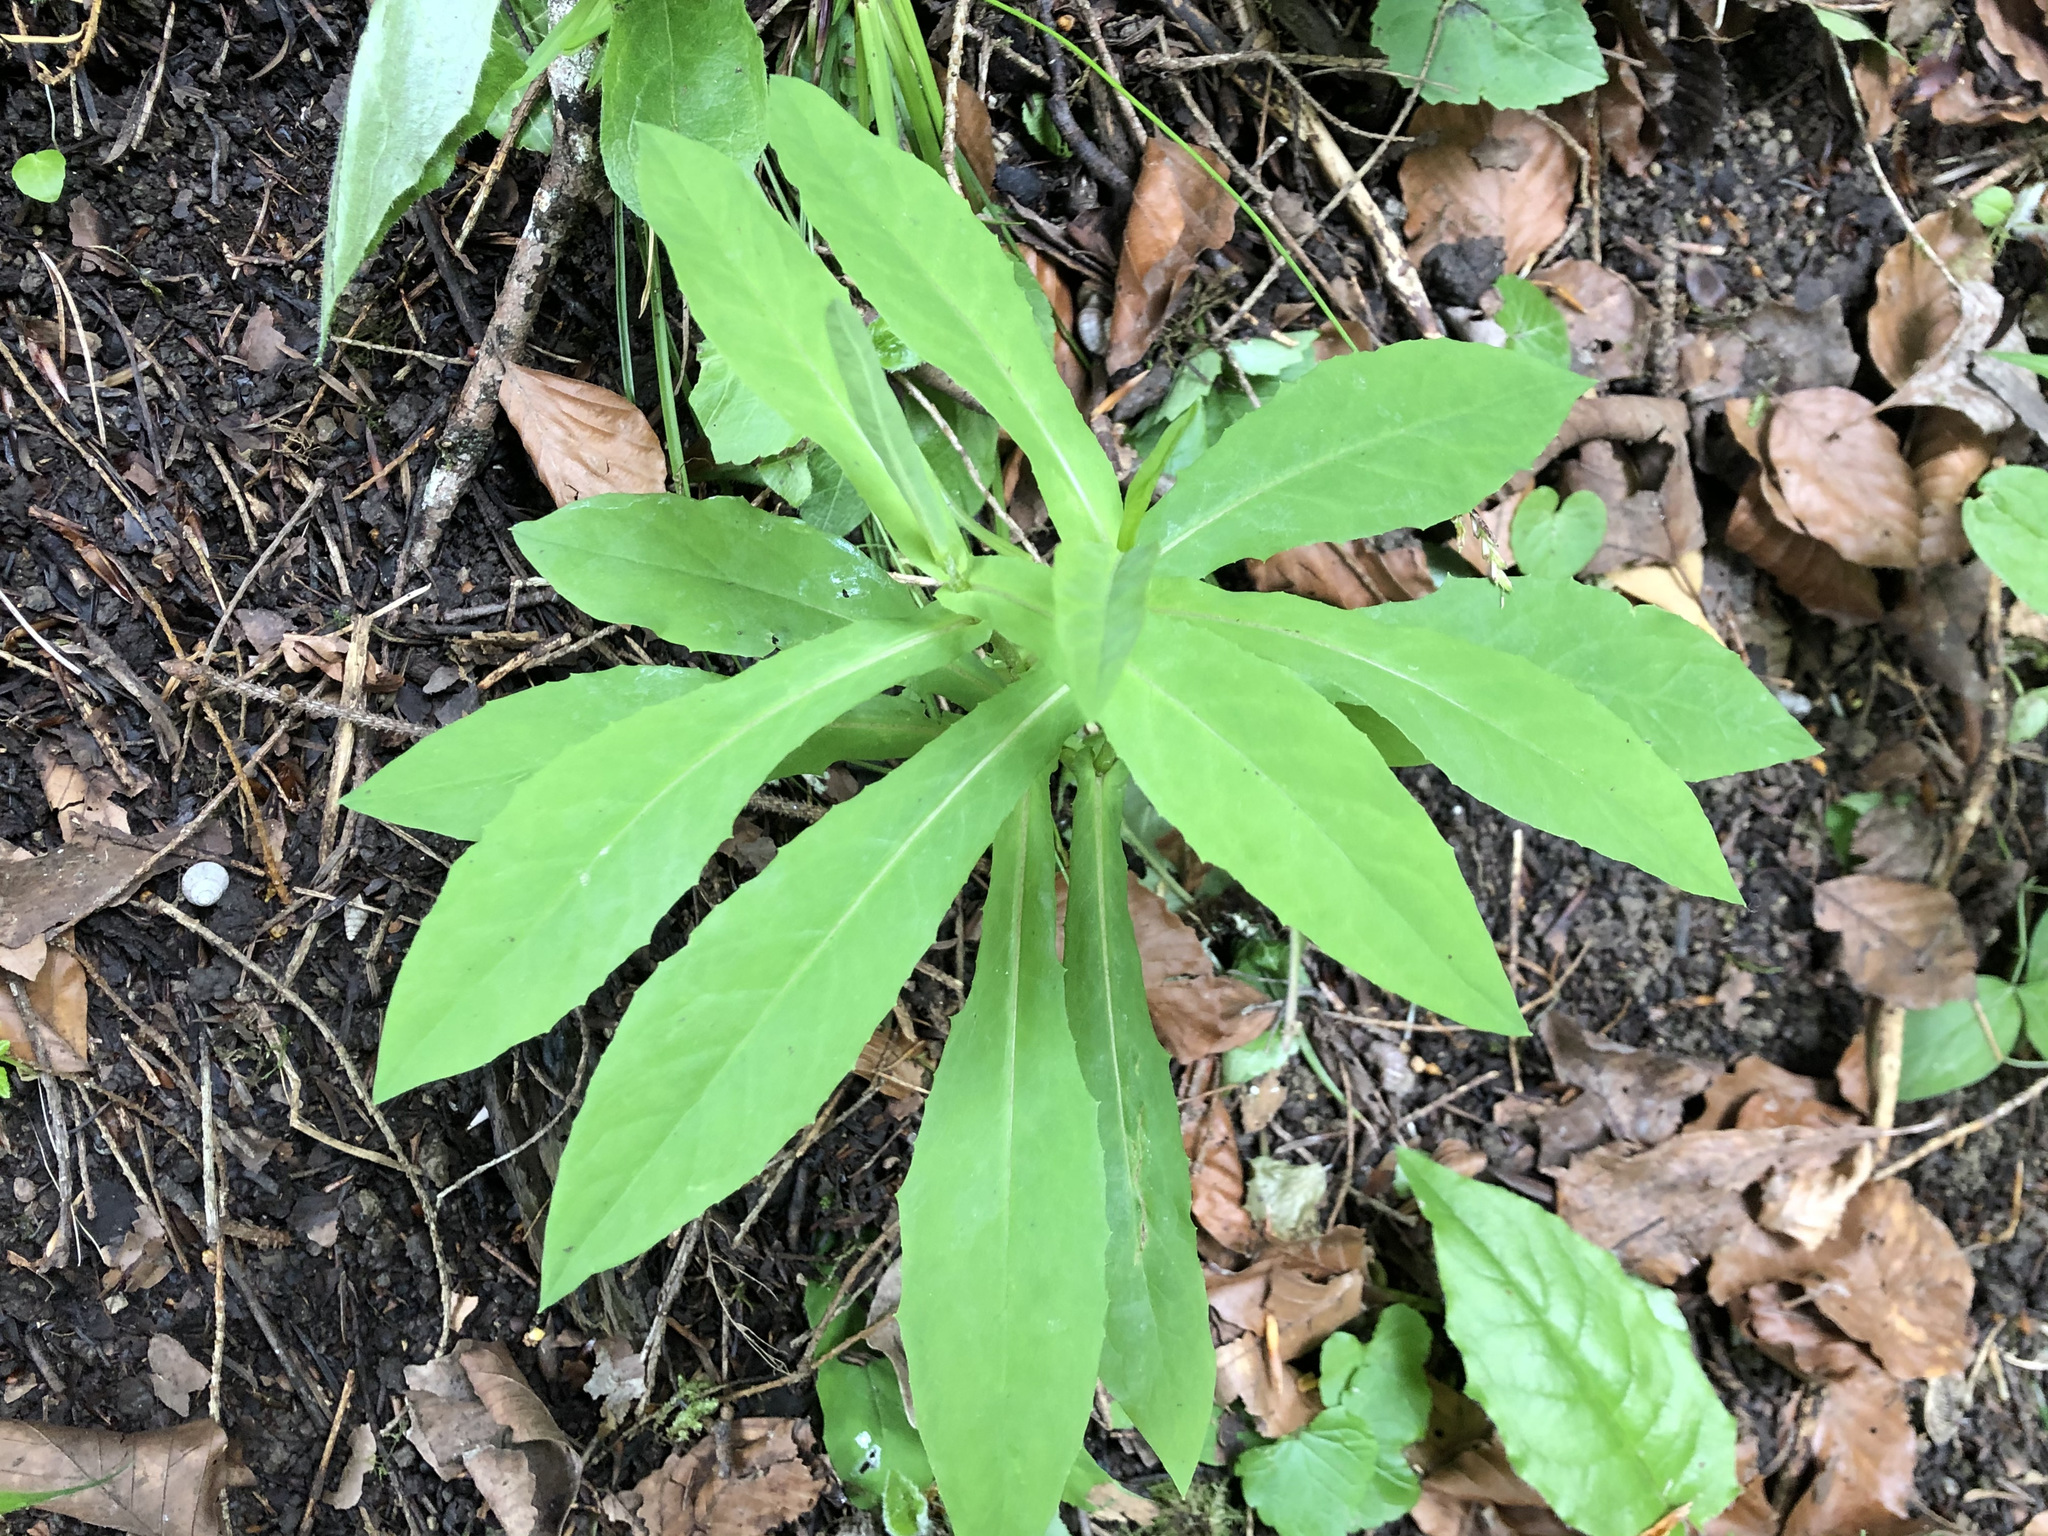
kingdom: Plantae
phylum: Tracheophyta
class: Magnoliopsida
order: Asterales
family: Asteraceae
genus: Prenanthes
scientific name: Prenanthes purpurea
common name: Purple lettuce
